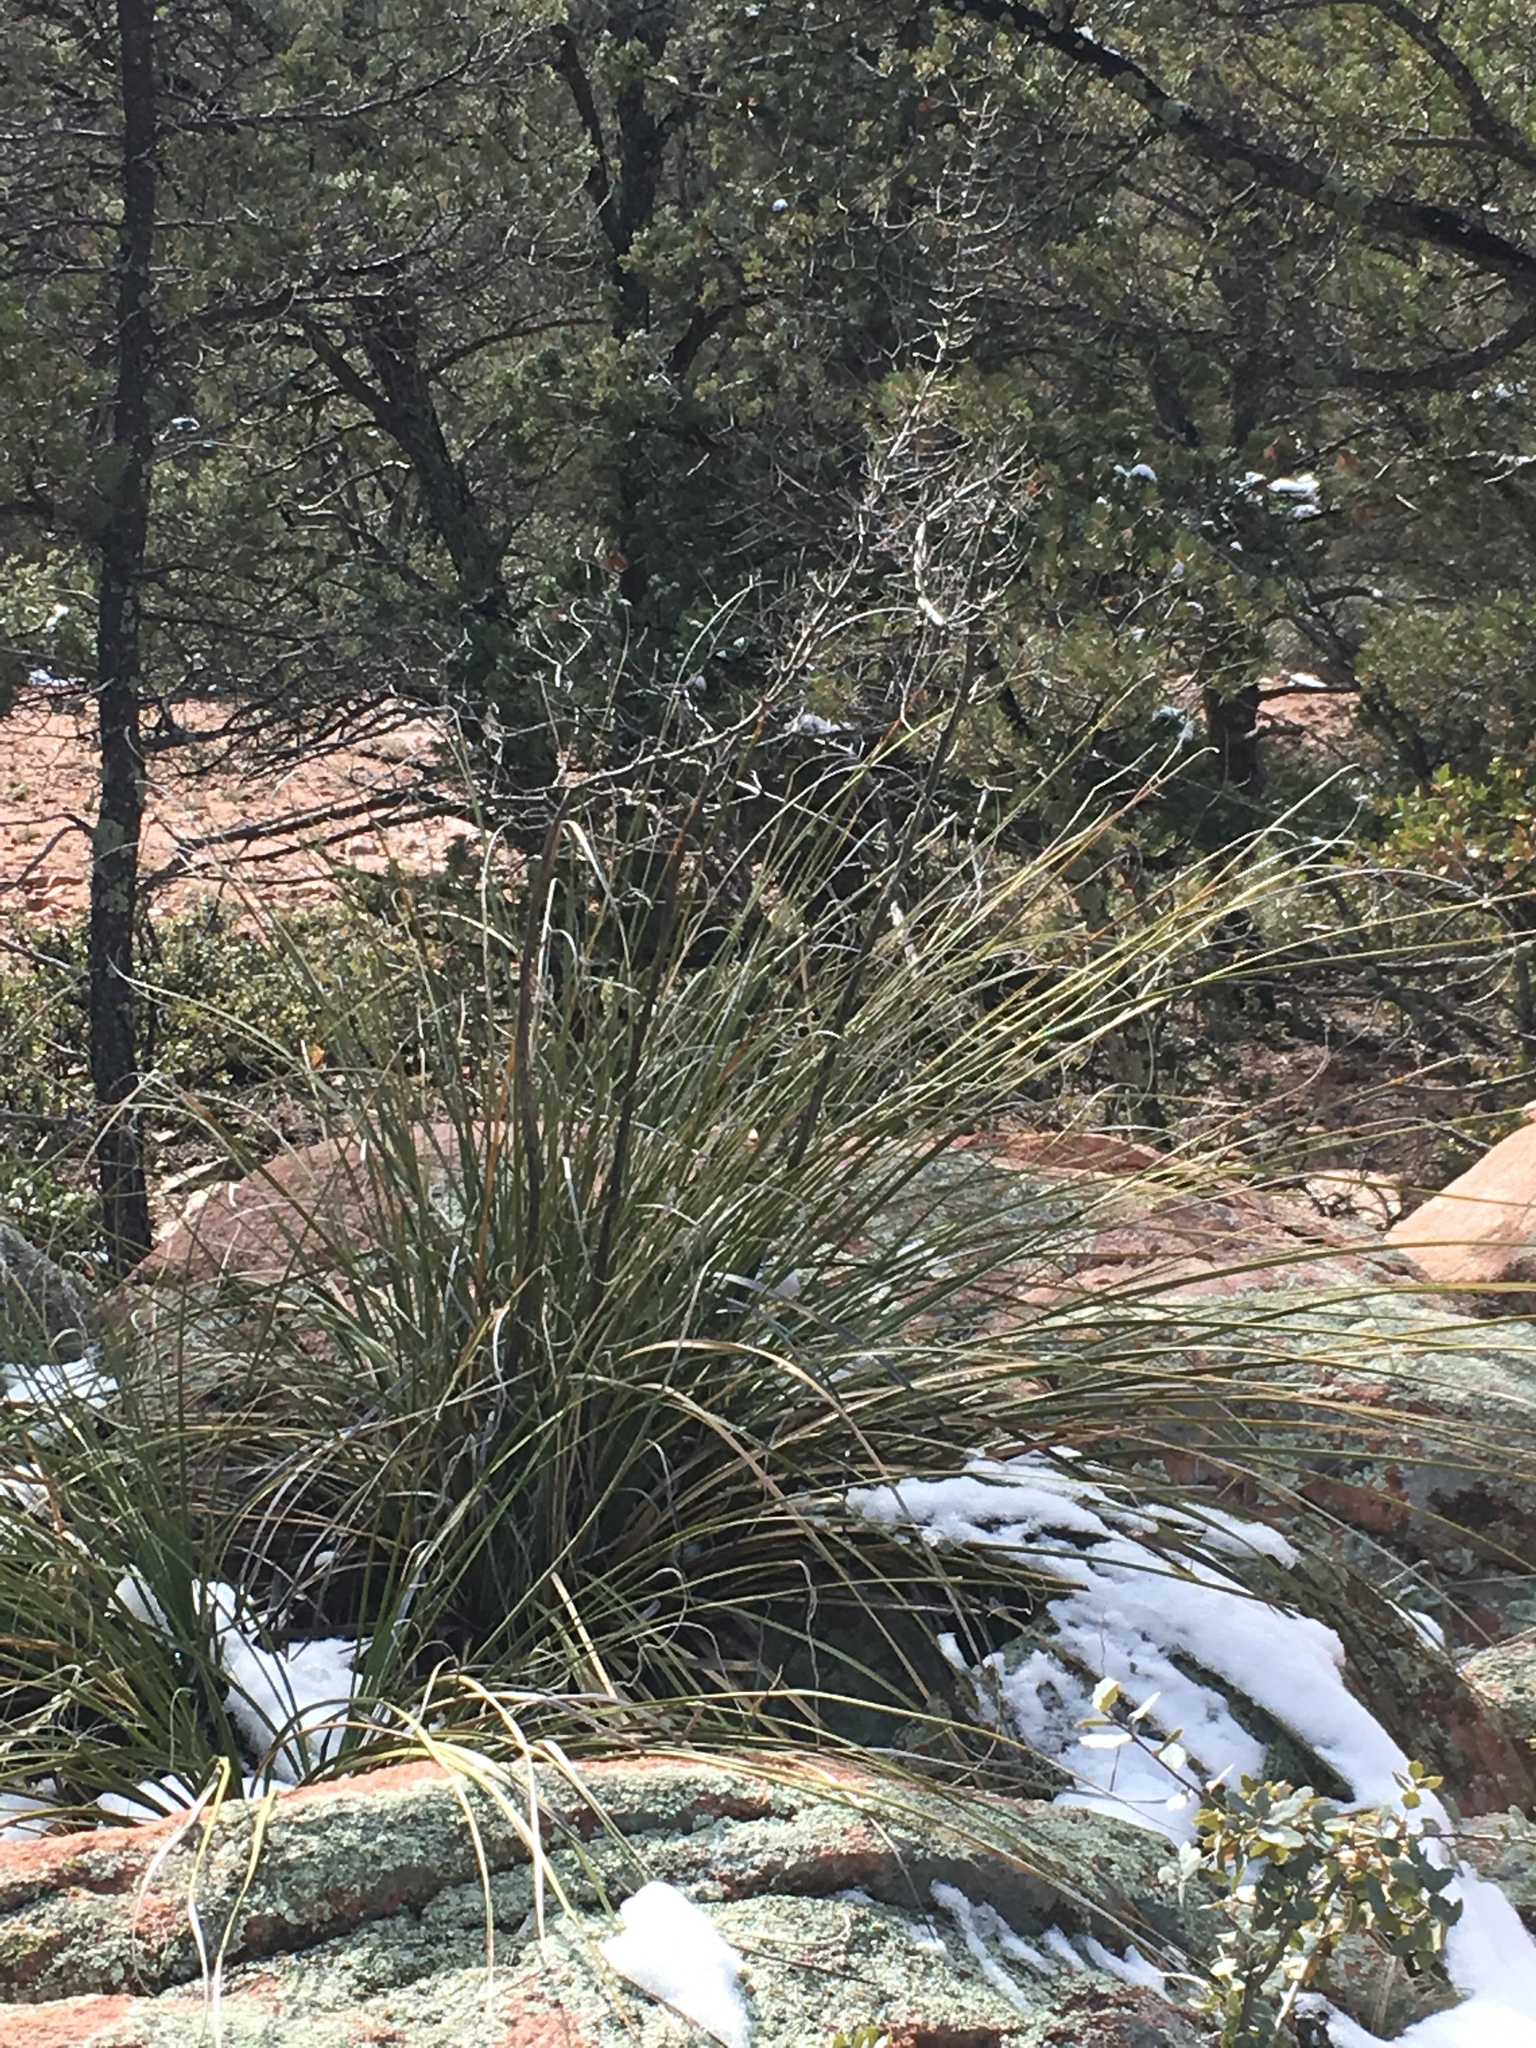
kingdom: Plantae
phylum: Tracheophyta
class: Liliopsida
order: Asparagales
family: Asparagaceae
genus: Nolina
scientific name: Nolina microcarpa
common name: Bear-grass
